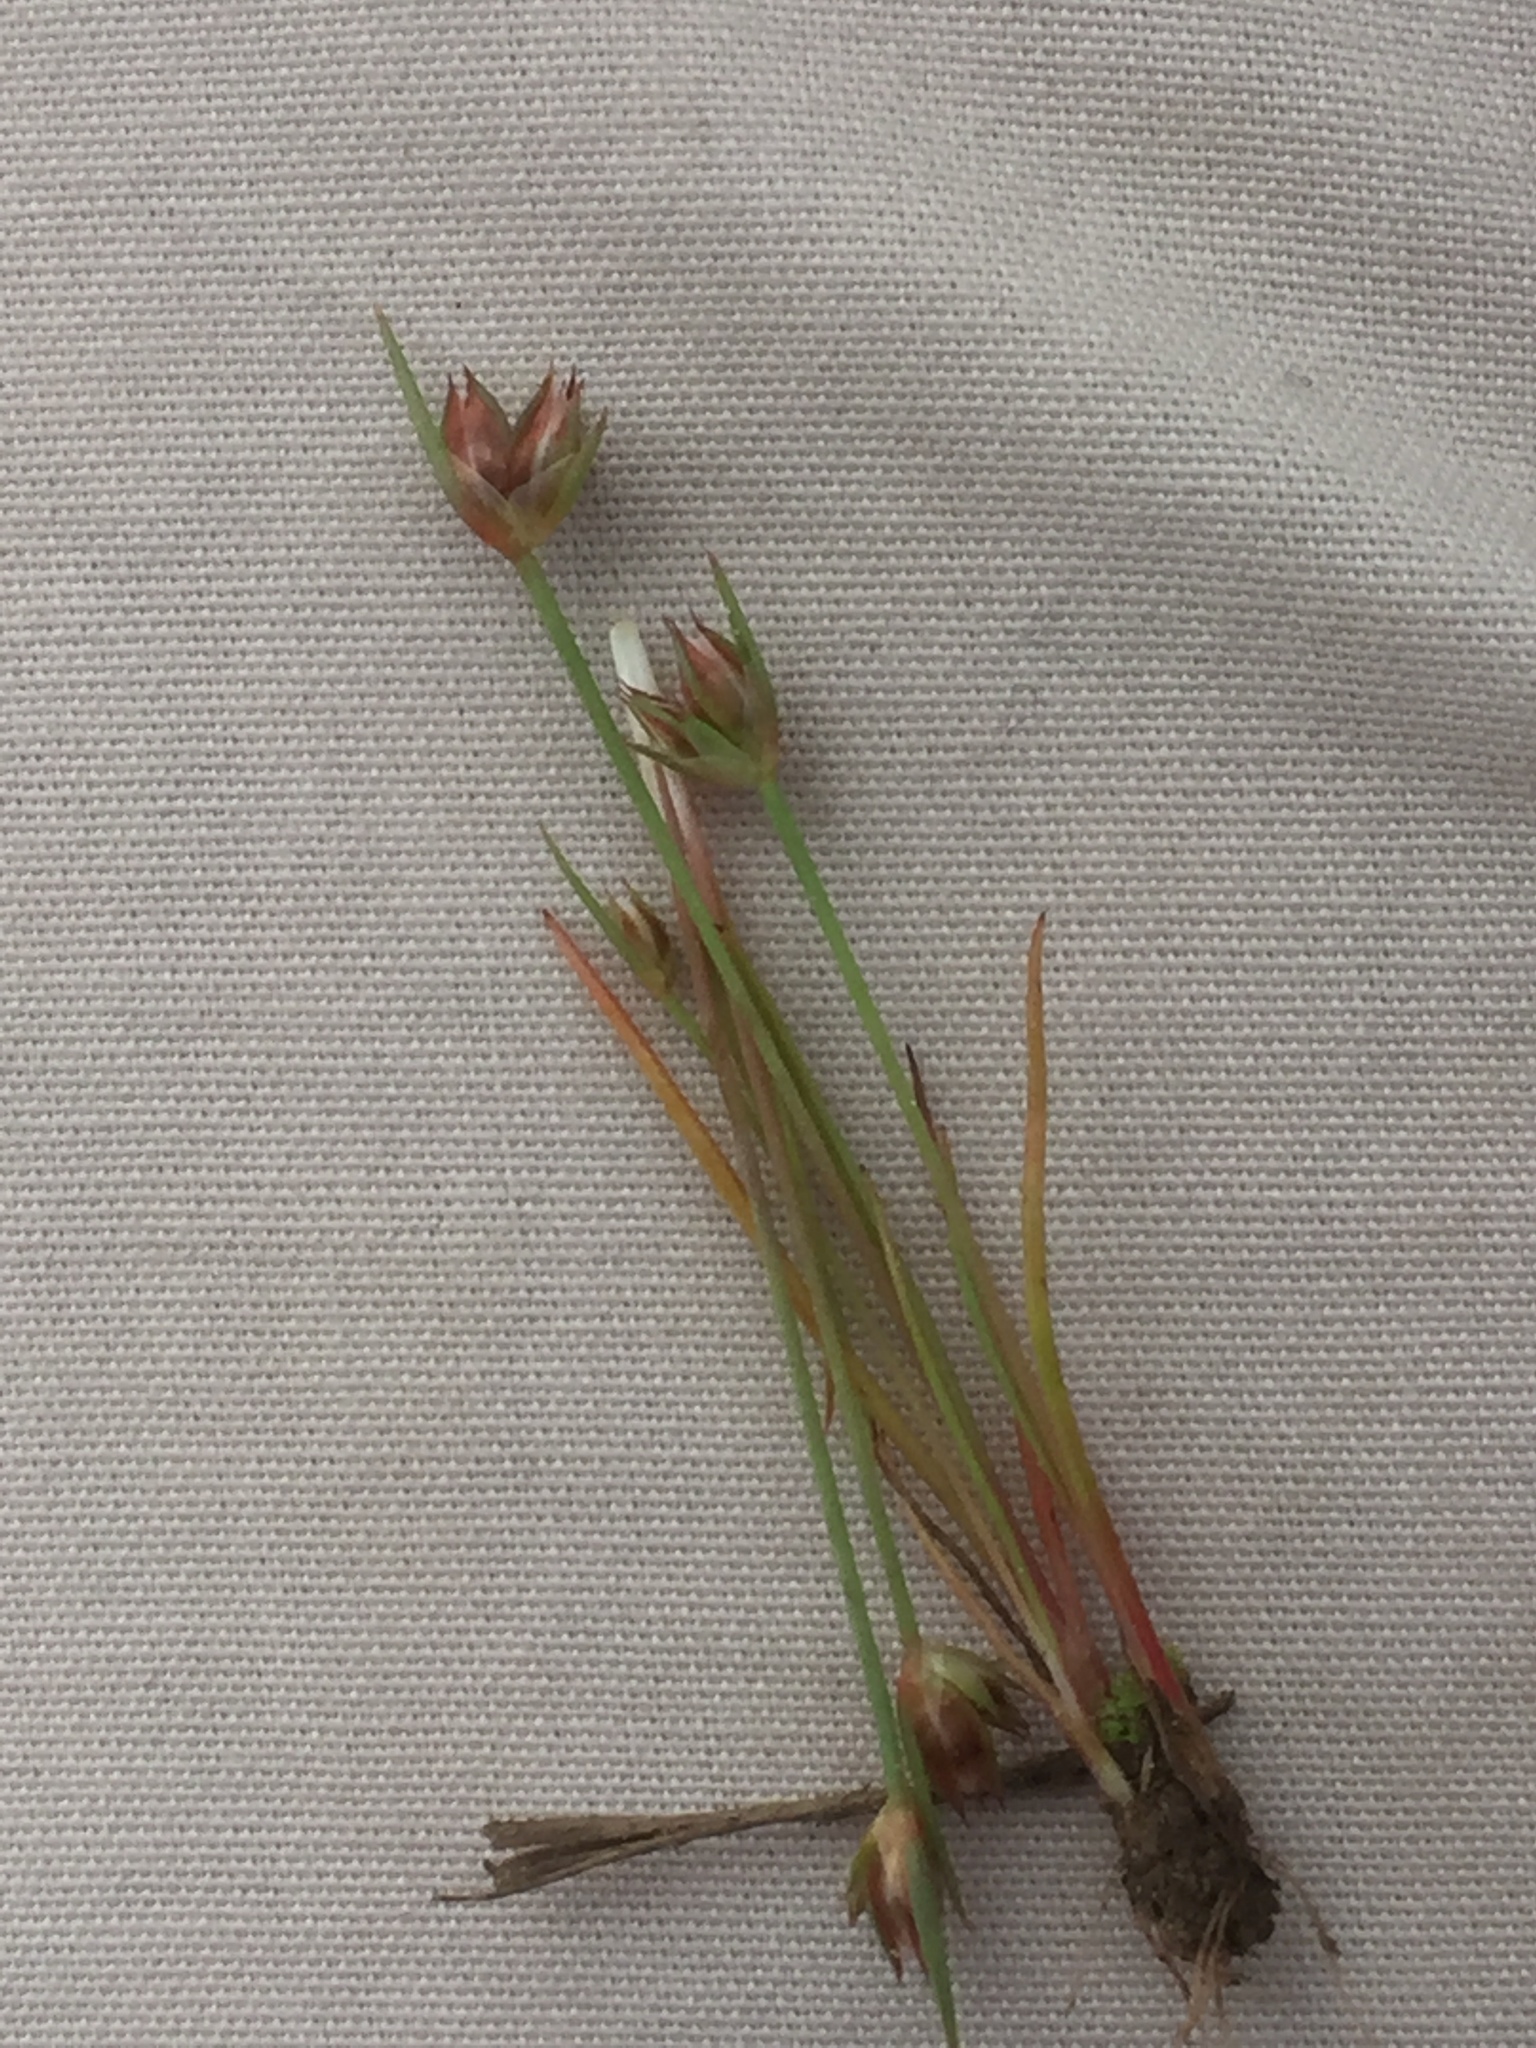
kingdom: Plantae
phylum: Tracheophyta
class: Liliopsida
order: Poales
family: Juncaceae
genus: Juncus
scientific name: Juncus capitatus
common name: Dwarf rush
